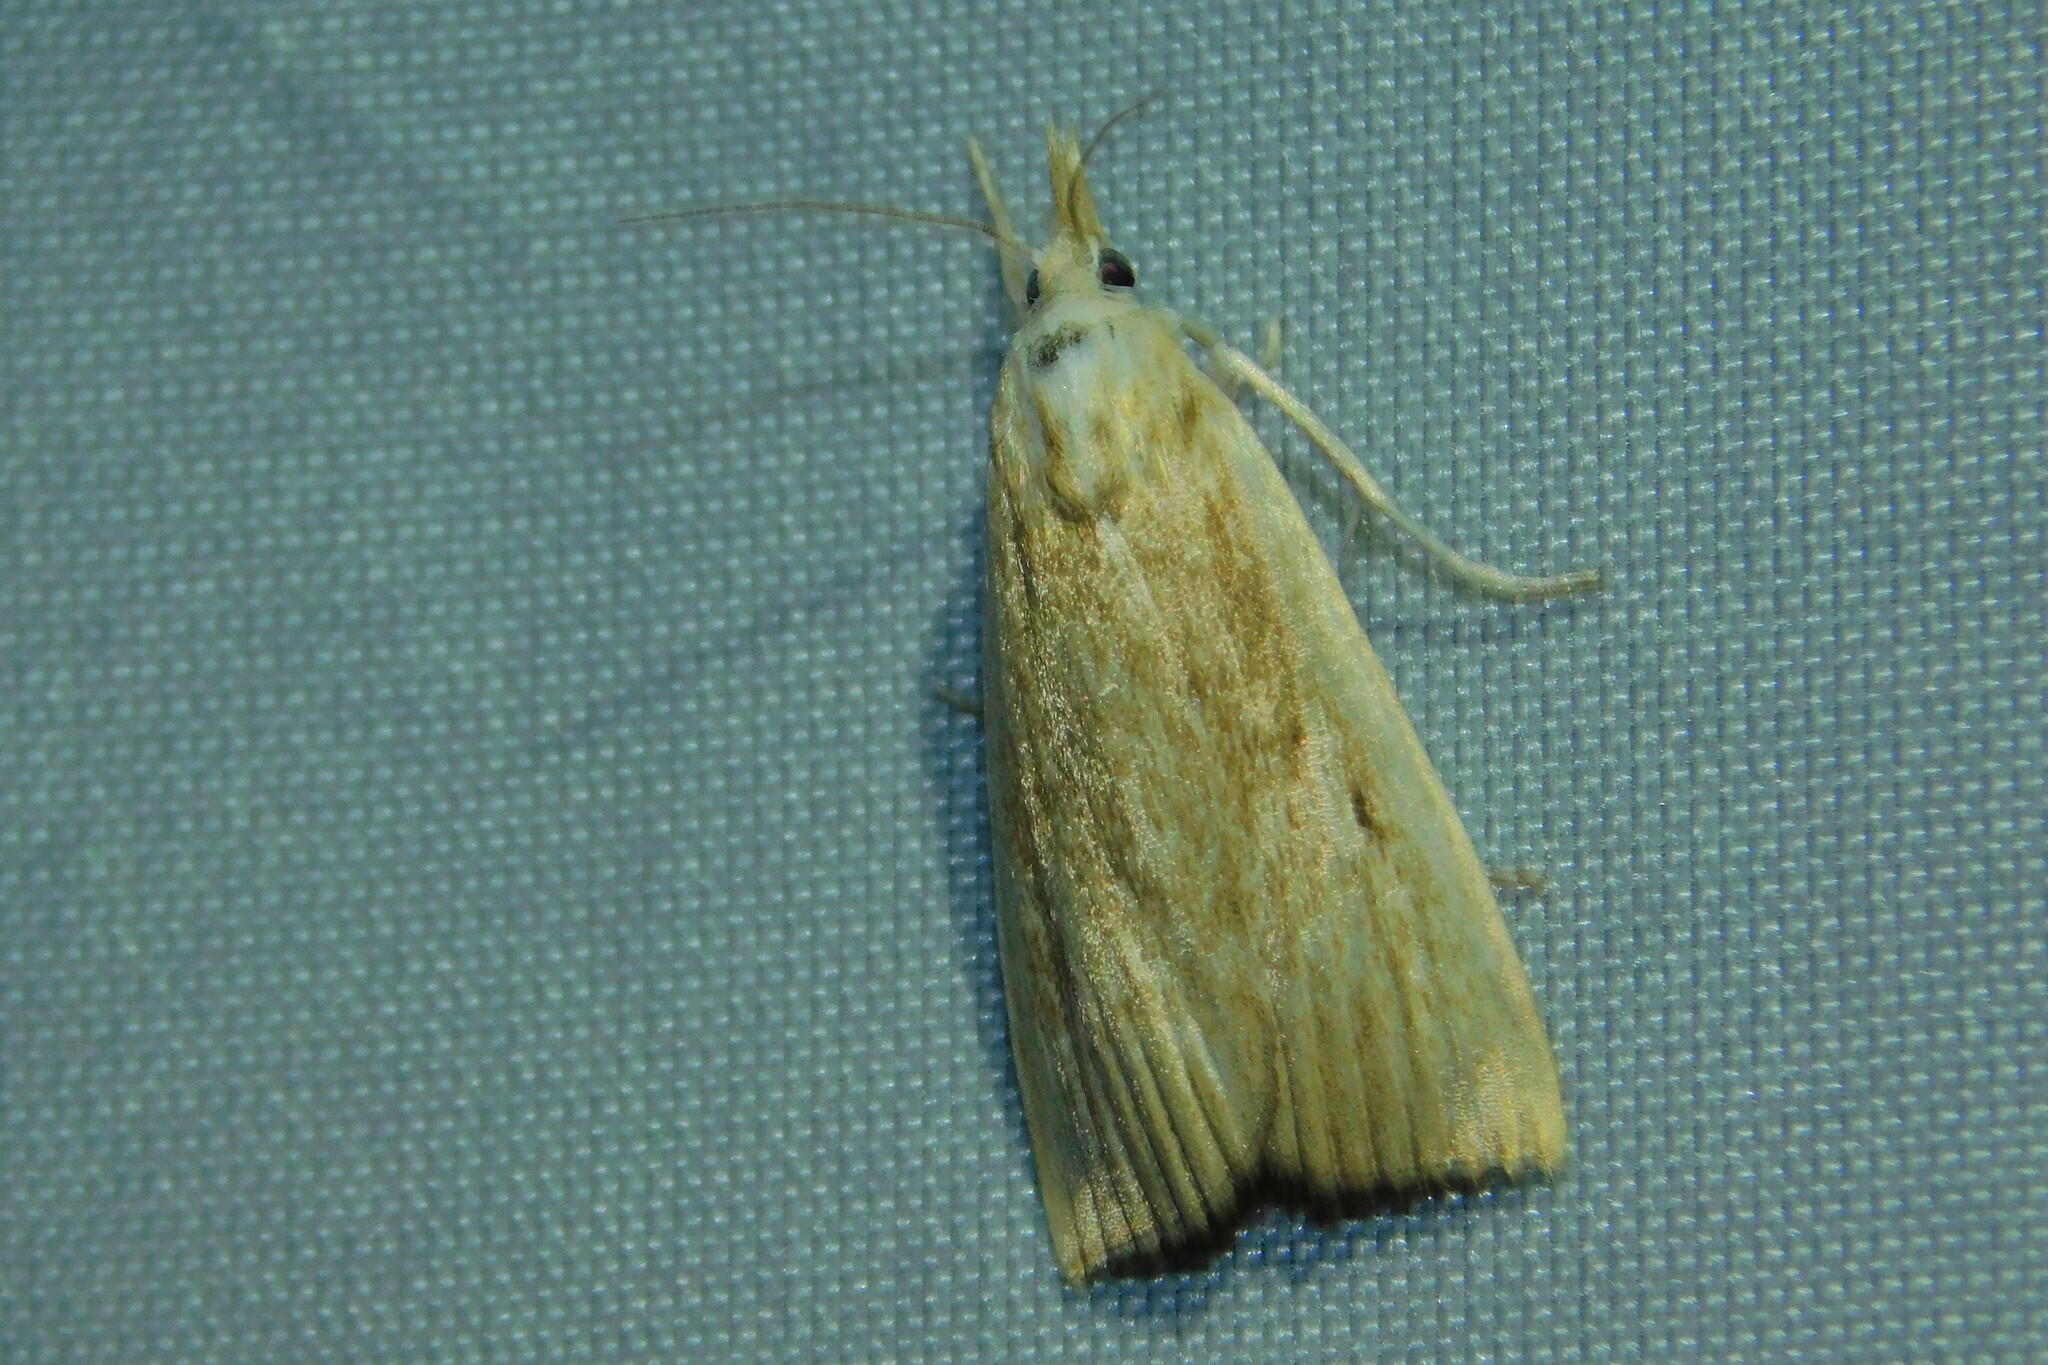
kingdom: Animalia
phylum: Arthropoda
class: Insecta
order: Lepidoptera
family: Crambidae
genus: Calamotropha
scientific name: Calamotropha paludella
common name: Bulrush veneer
